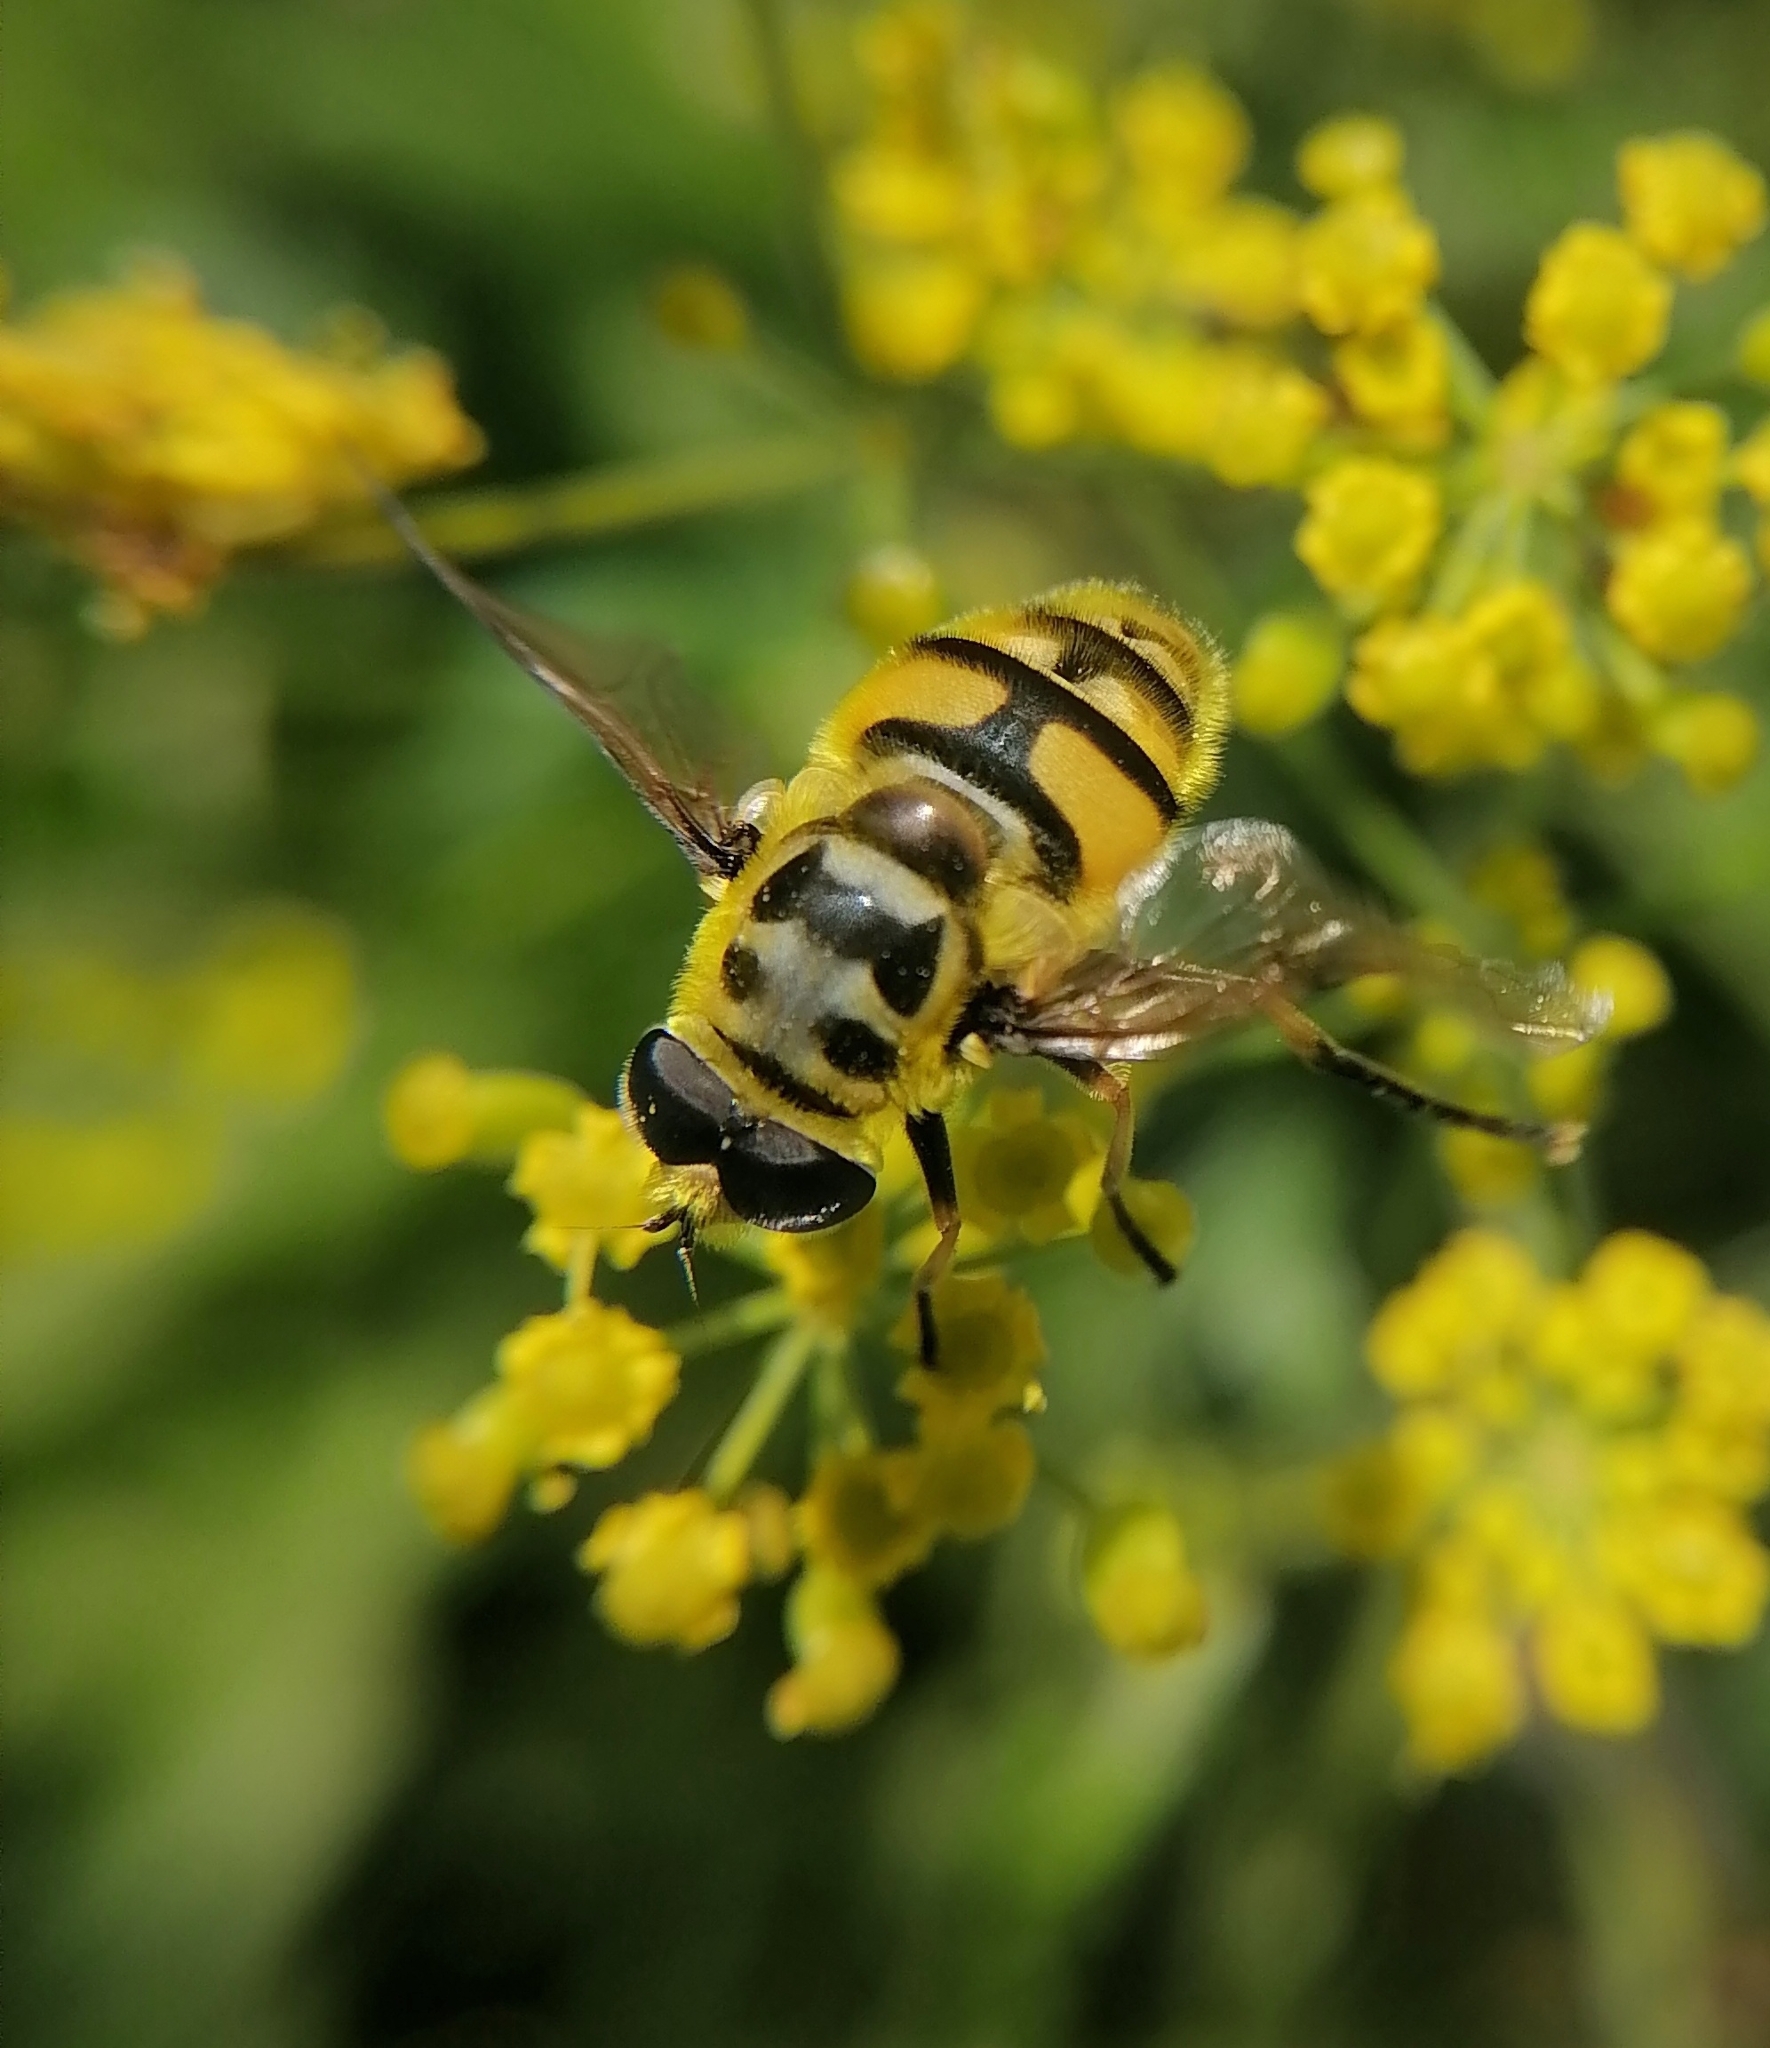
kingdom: Animalia
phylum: Arthropoda
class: Insecta
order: Diptera
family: Syrphidae
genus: Myathropa
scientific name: Myathropa florea
